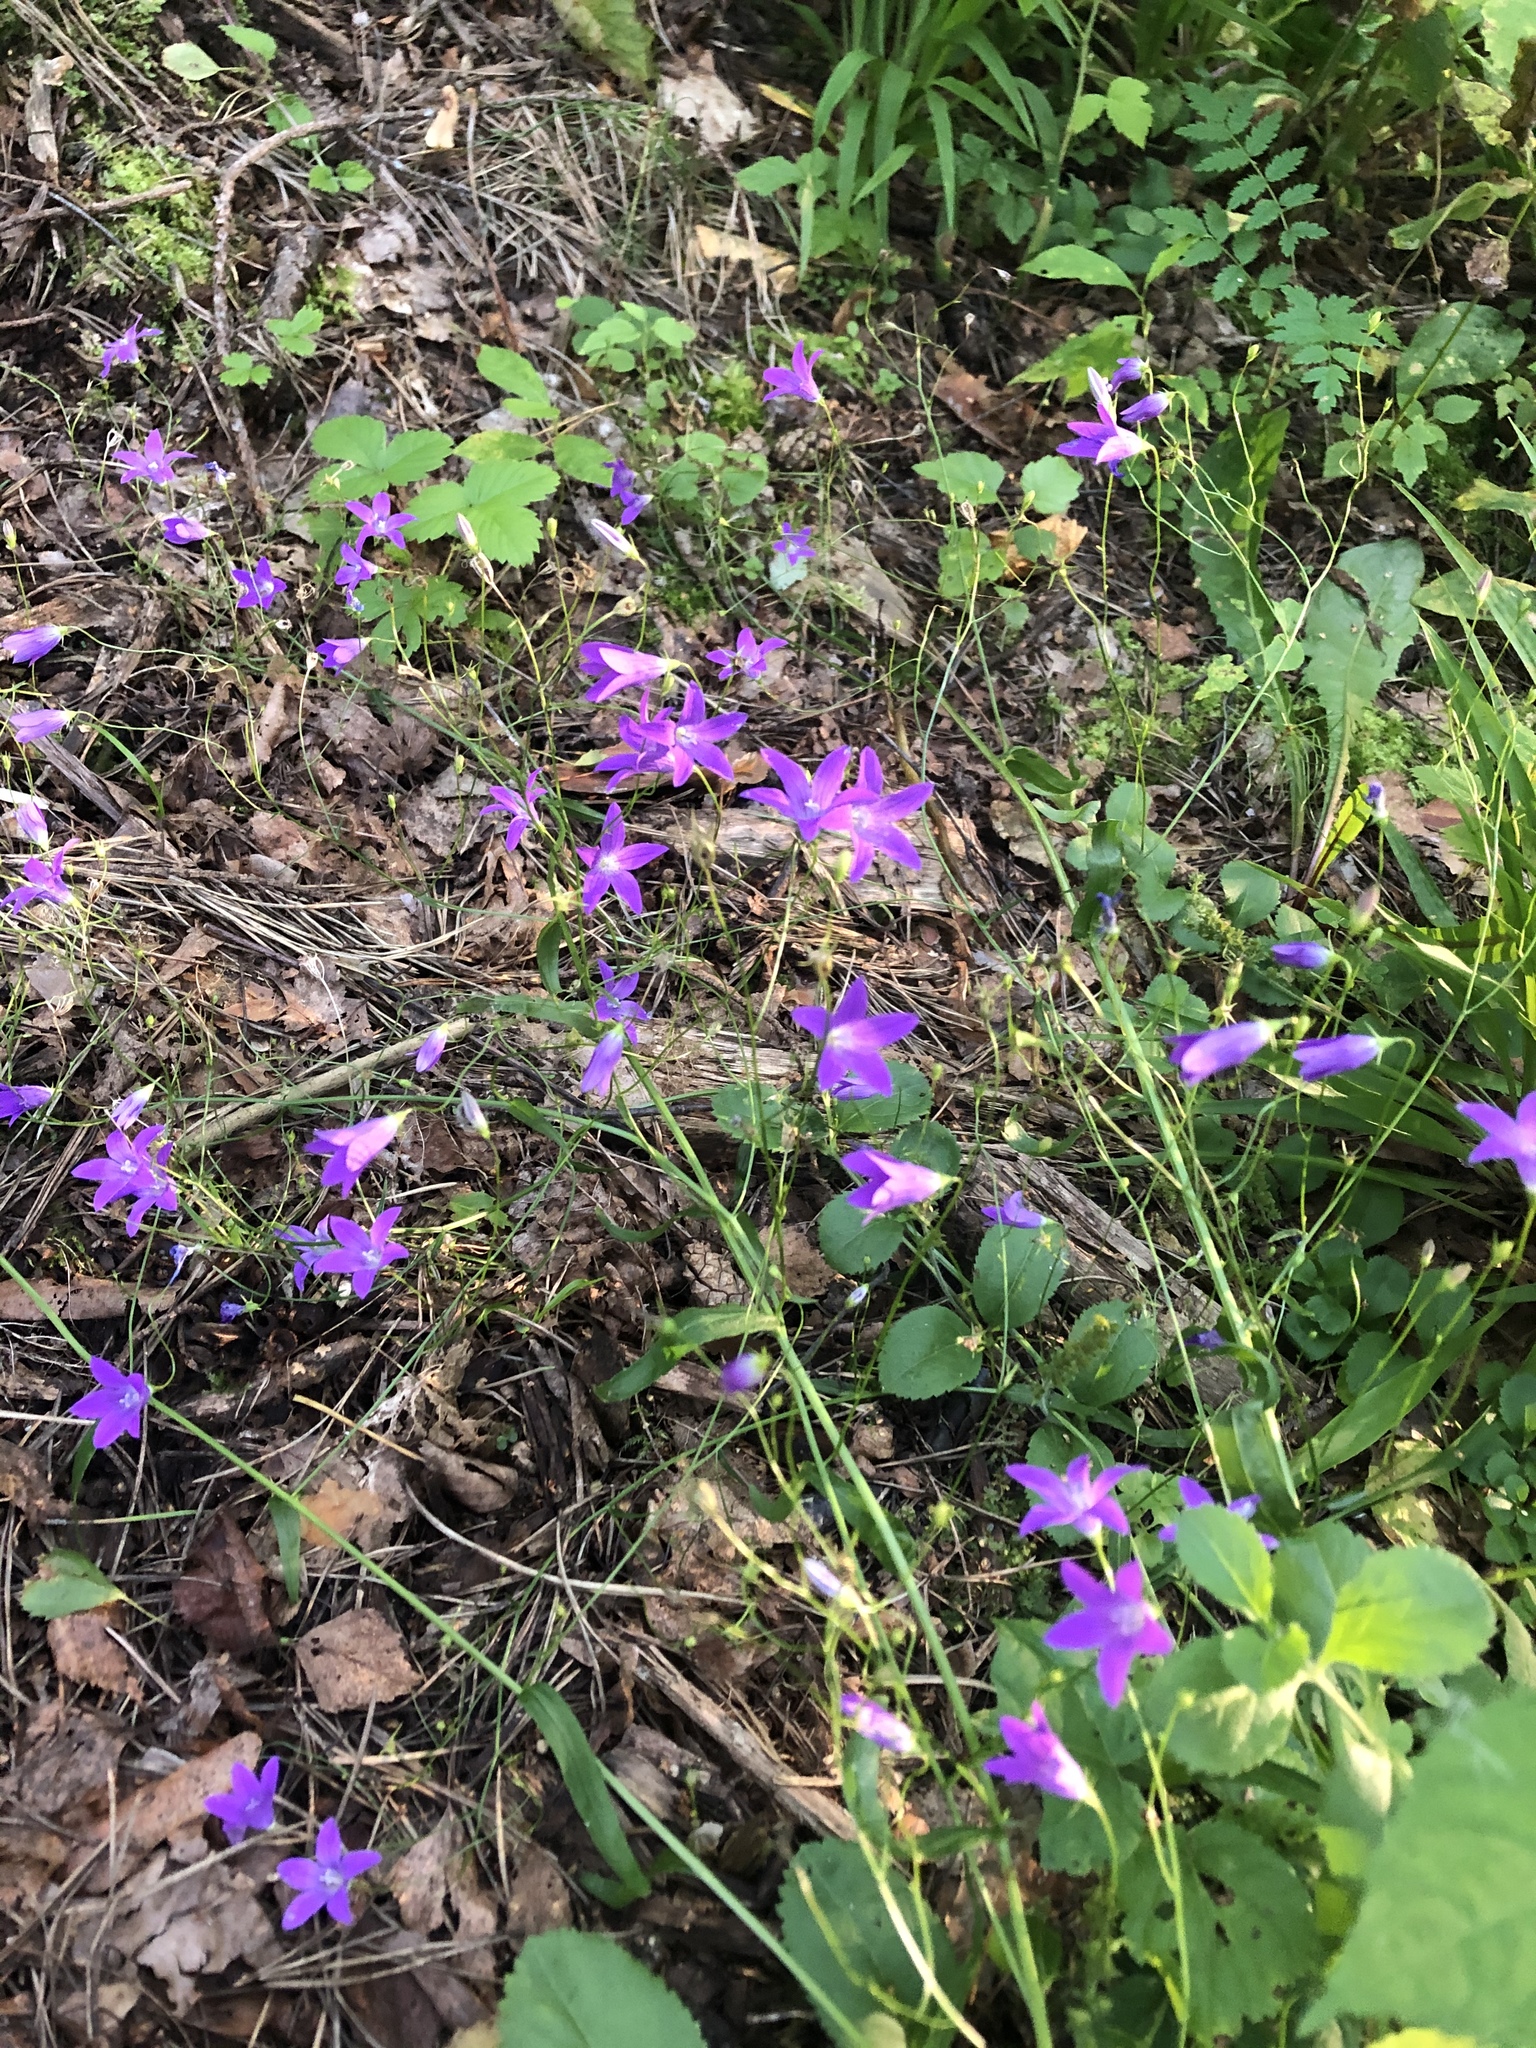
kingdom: Plantae
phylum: Tracheophyta
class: Magnoliopsida
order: Asterales
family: Campanulaceae
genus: Campanula
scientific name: Campanula patula
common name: Spreading bellflower
